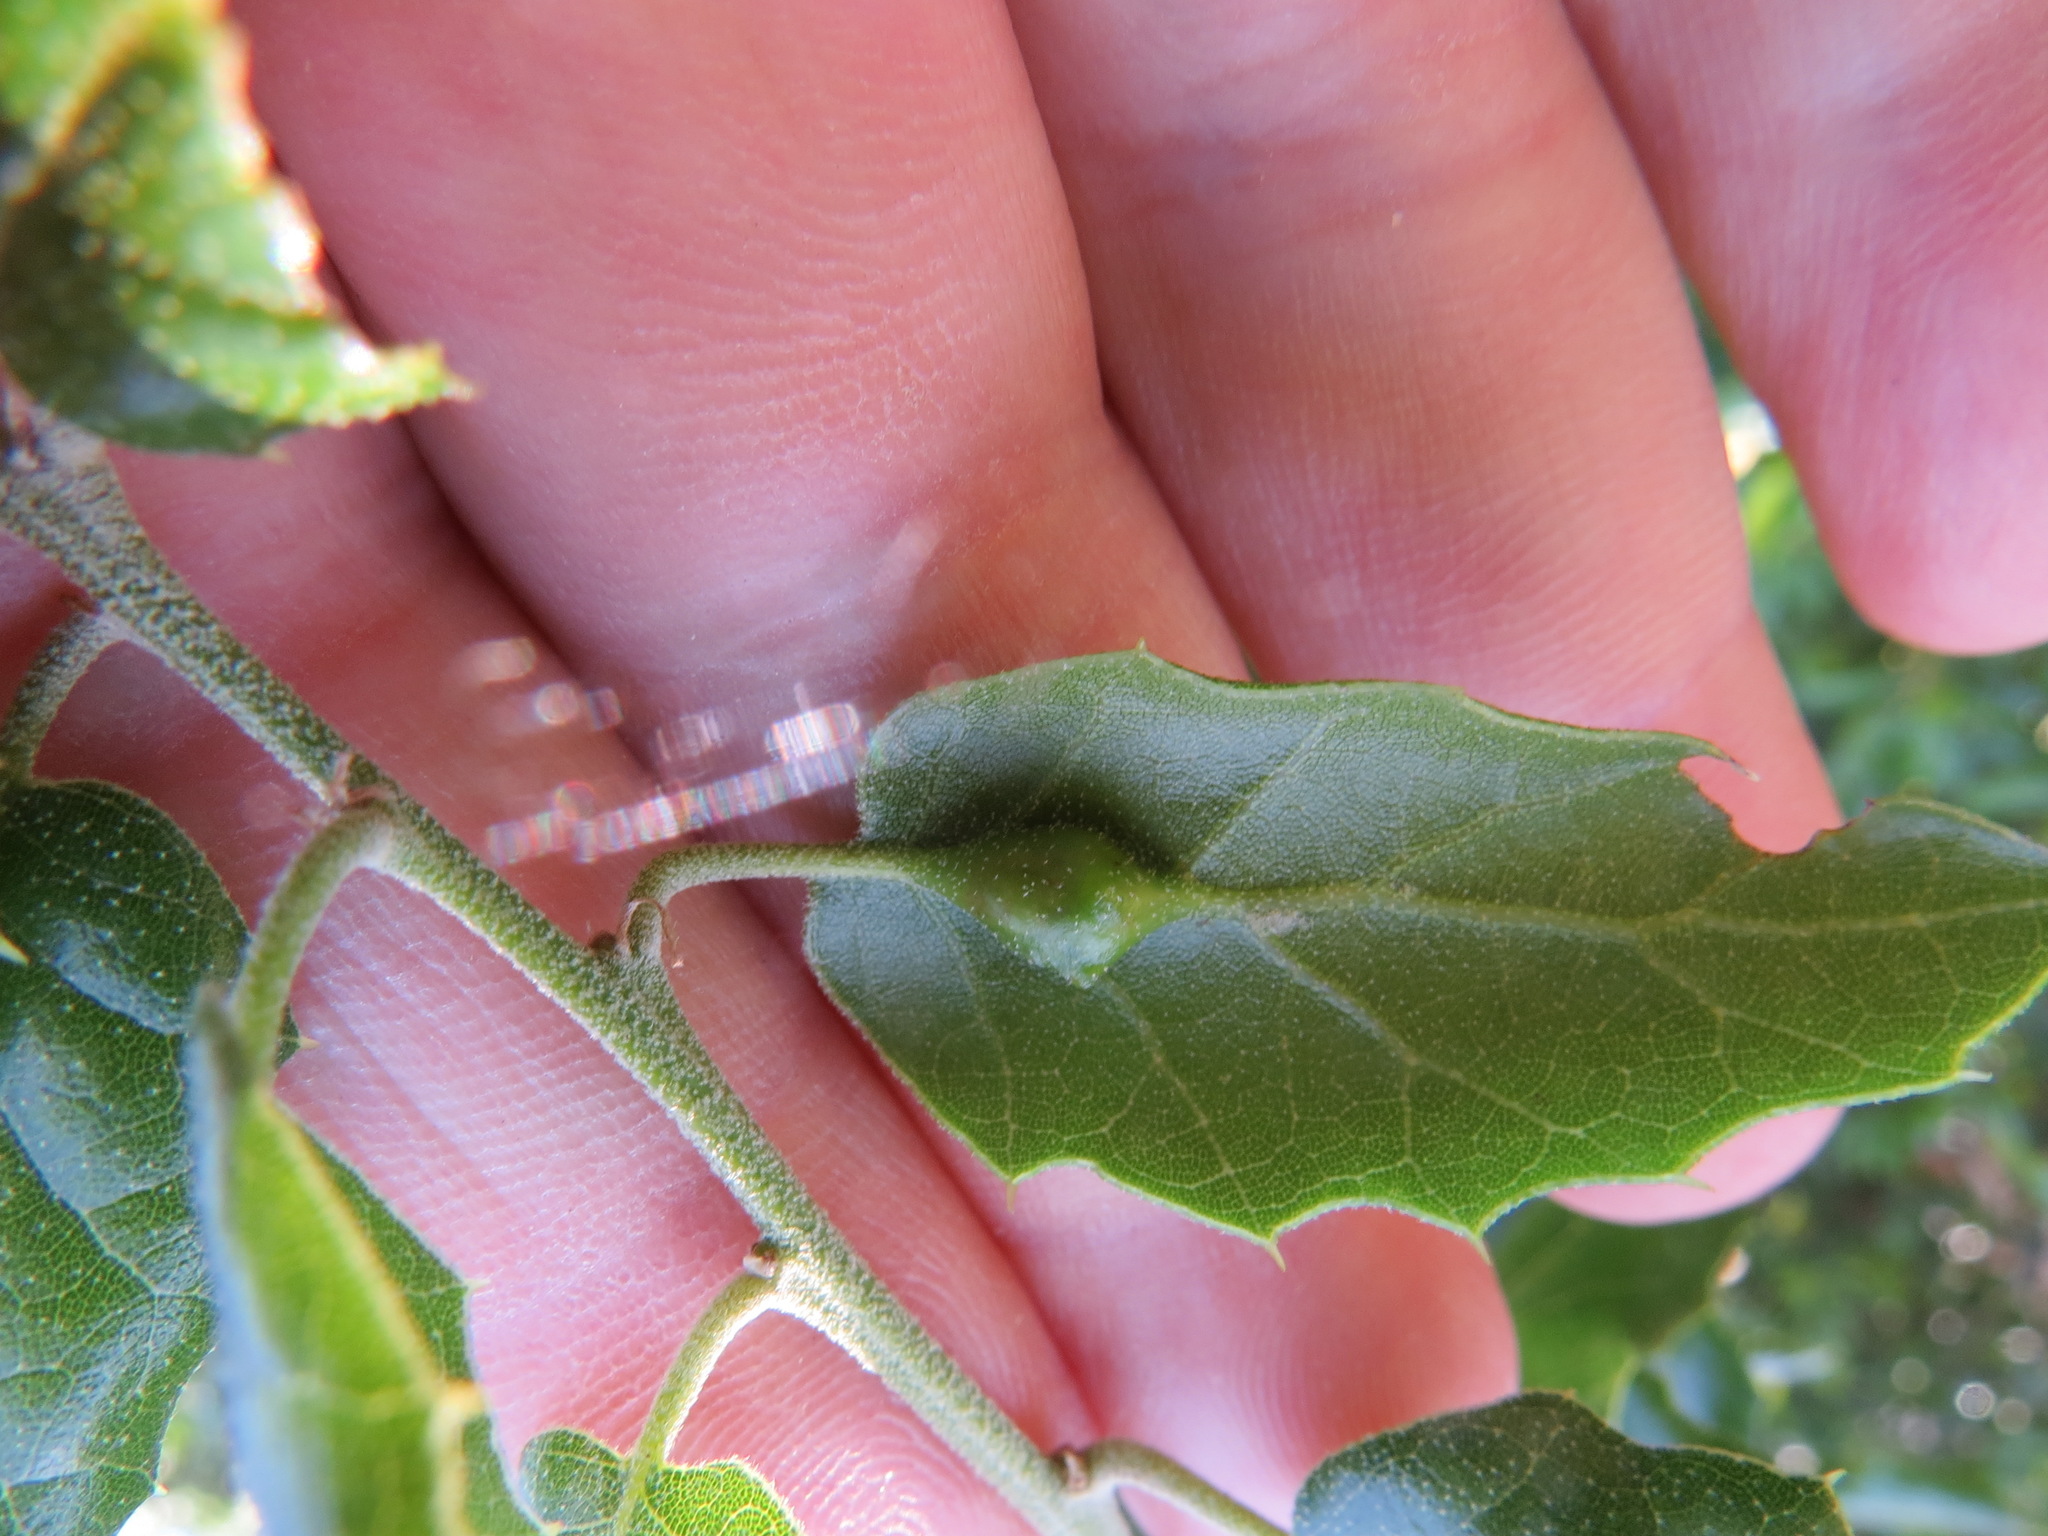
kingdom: Animalia
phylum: Arthropoda
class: Insecta
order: Hymenoptera
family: Cynipidae
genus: Melikaiella
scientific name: Melikaiella
